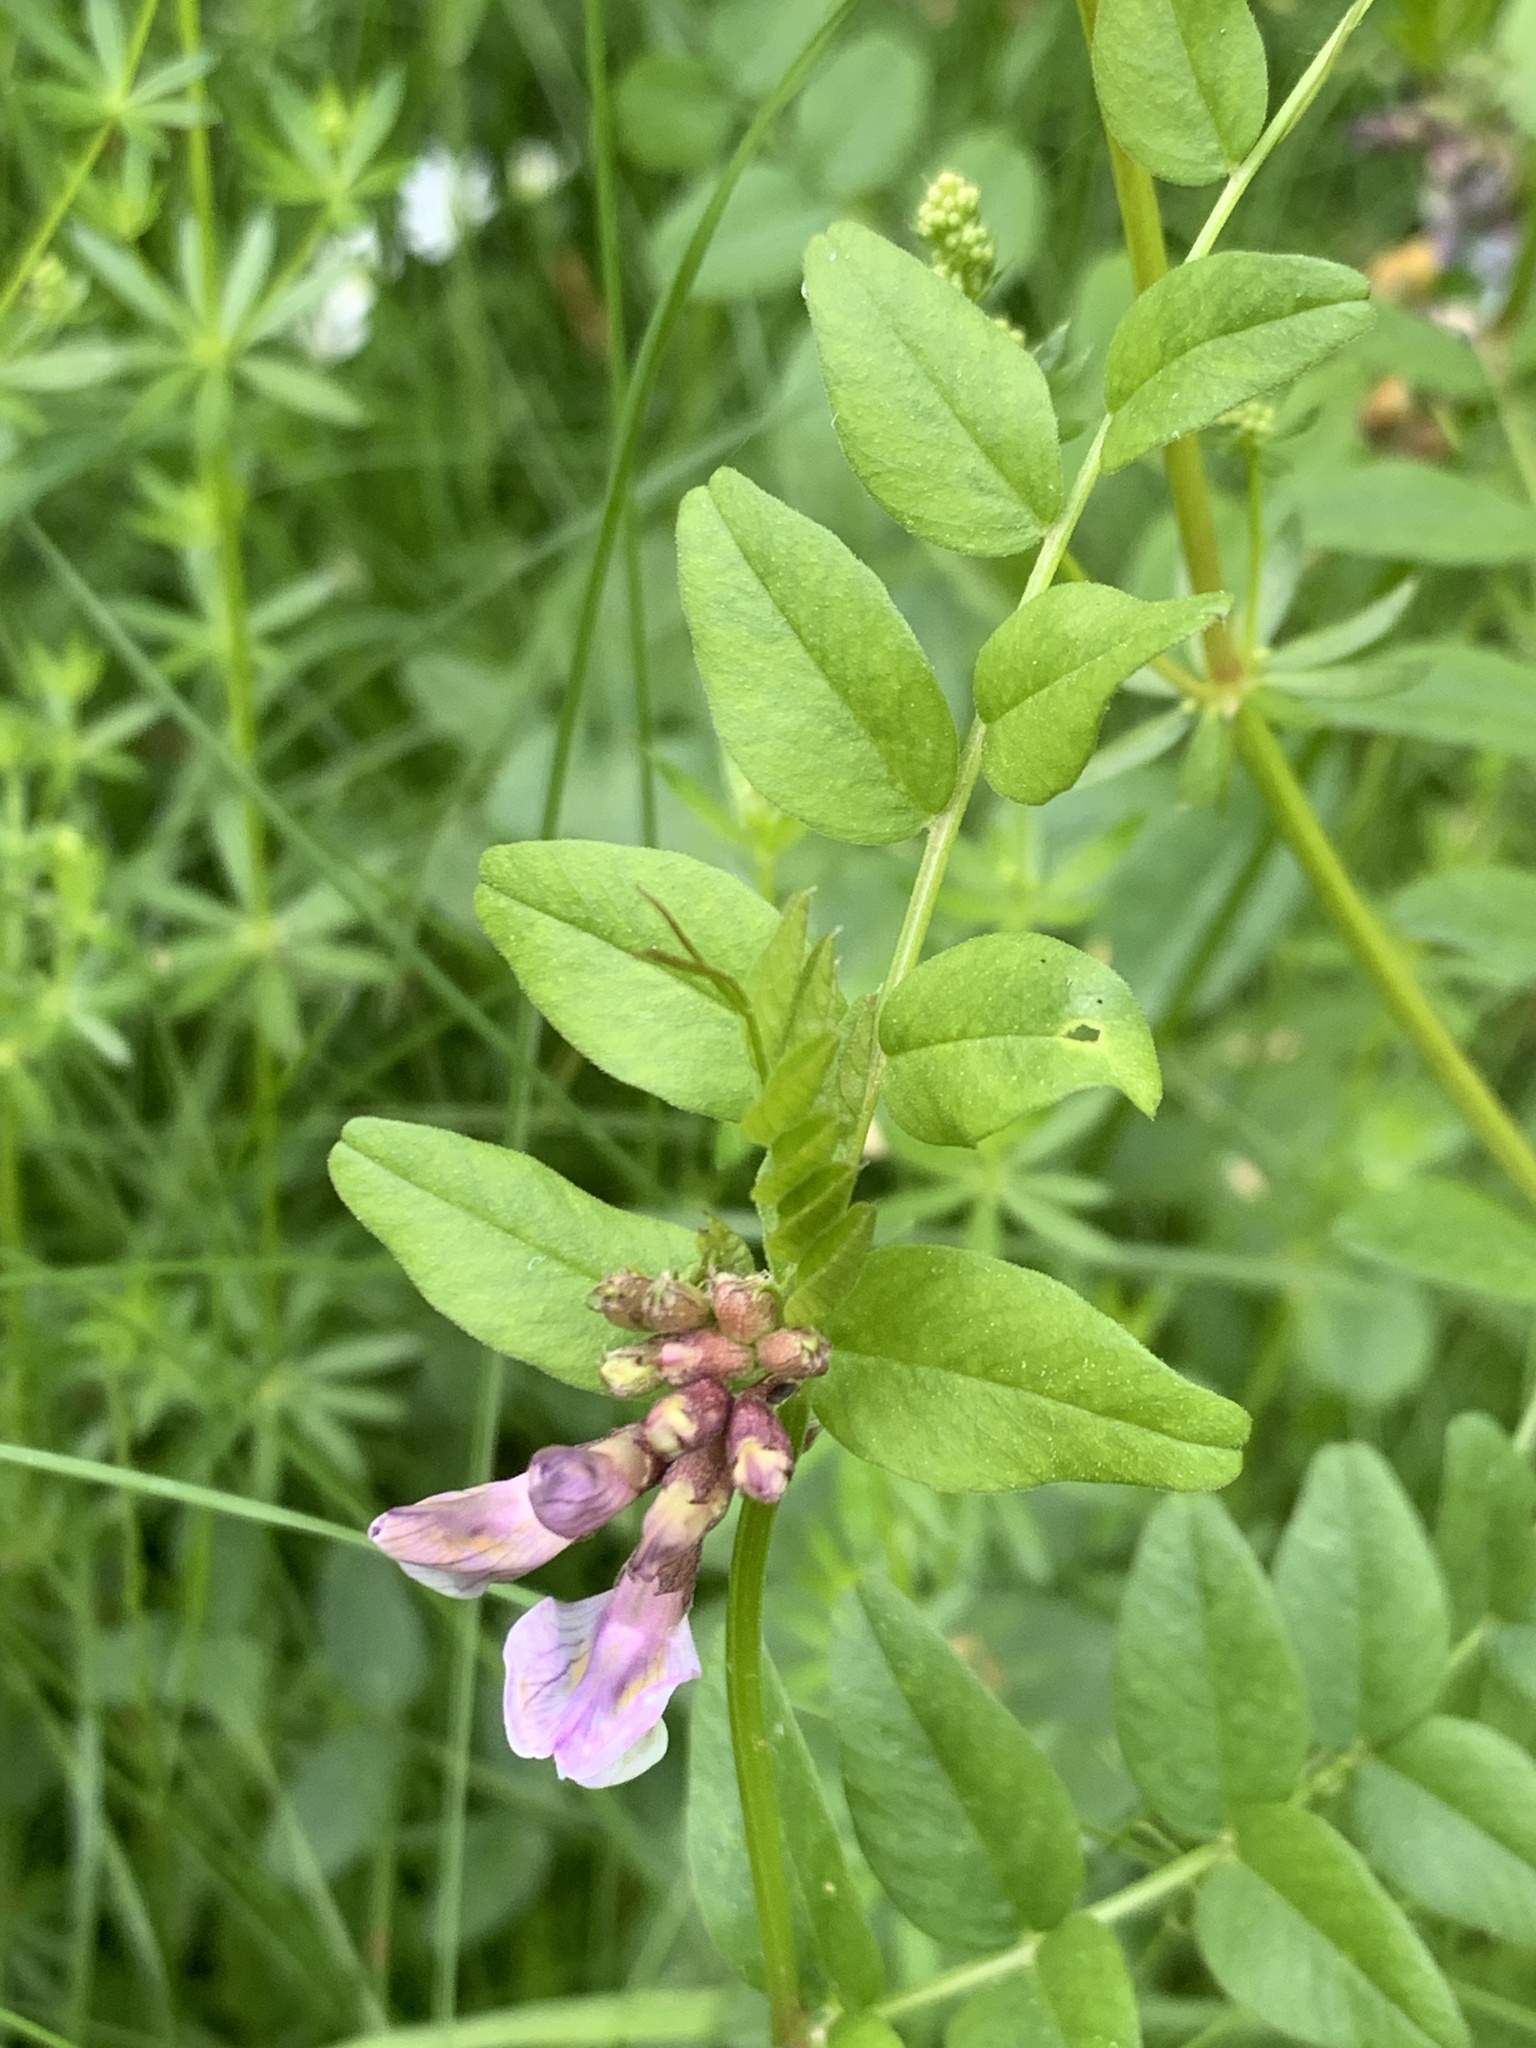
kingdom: Plantae
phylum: Tracheophyta
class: Magnoliopsida
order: Fabales
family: Fabaceae
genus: Vicia
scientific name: Vicia sepium
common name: Bush vetch
